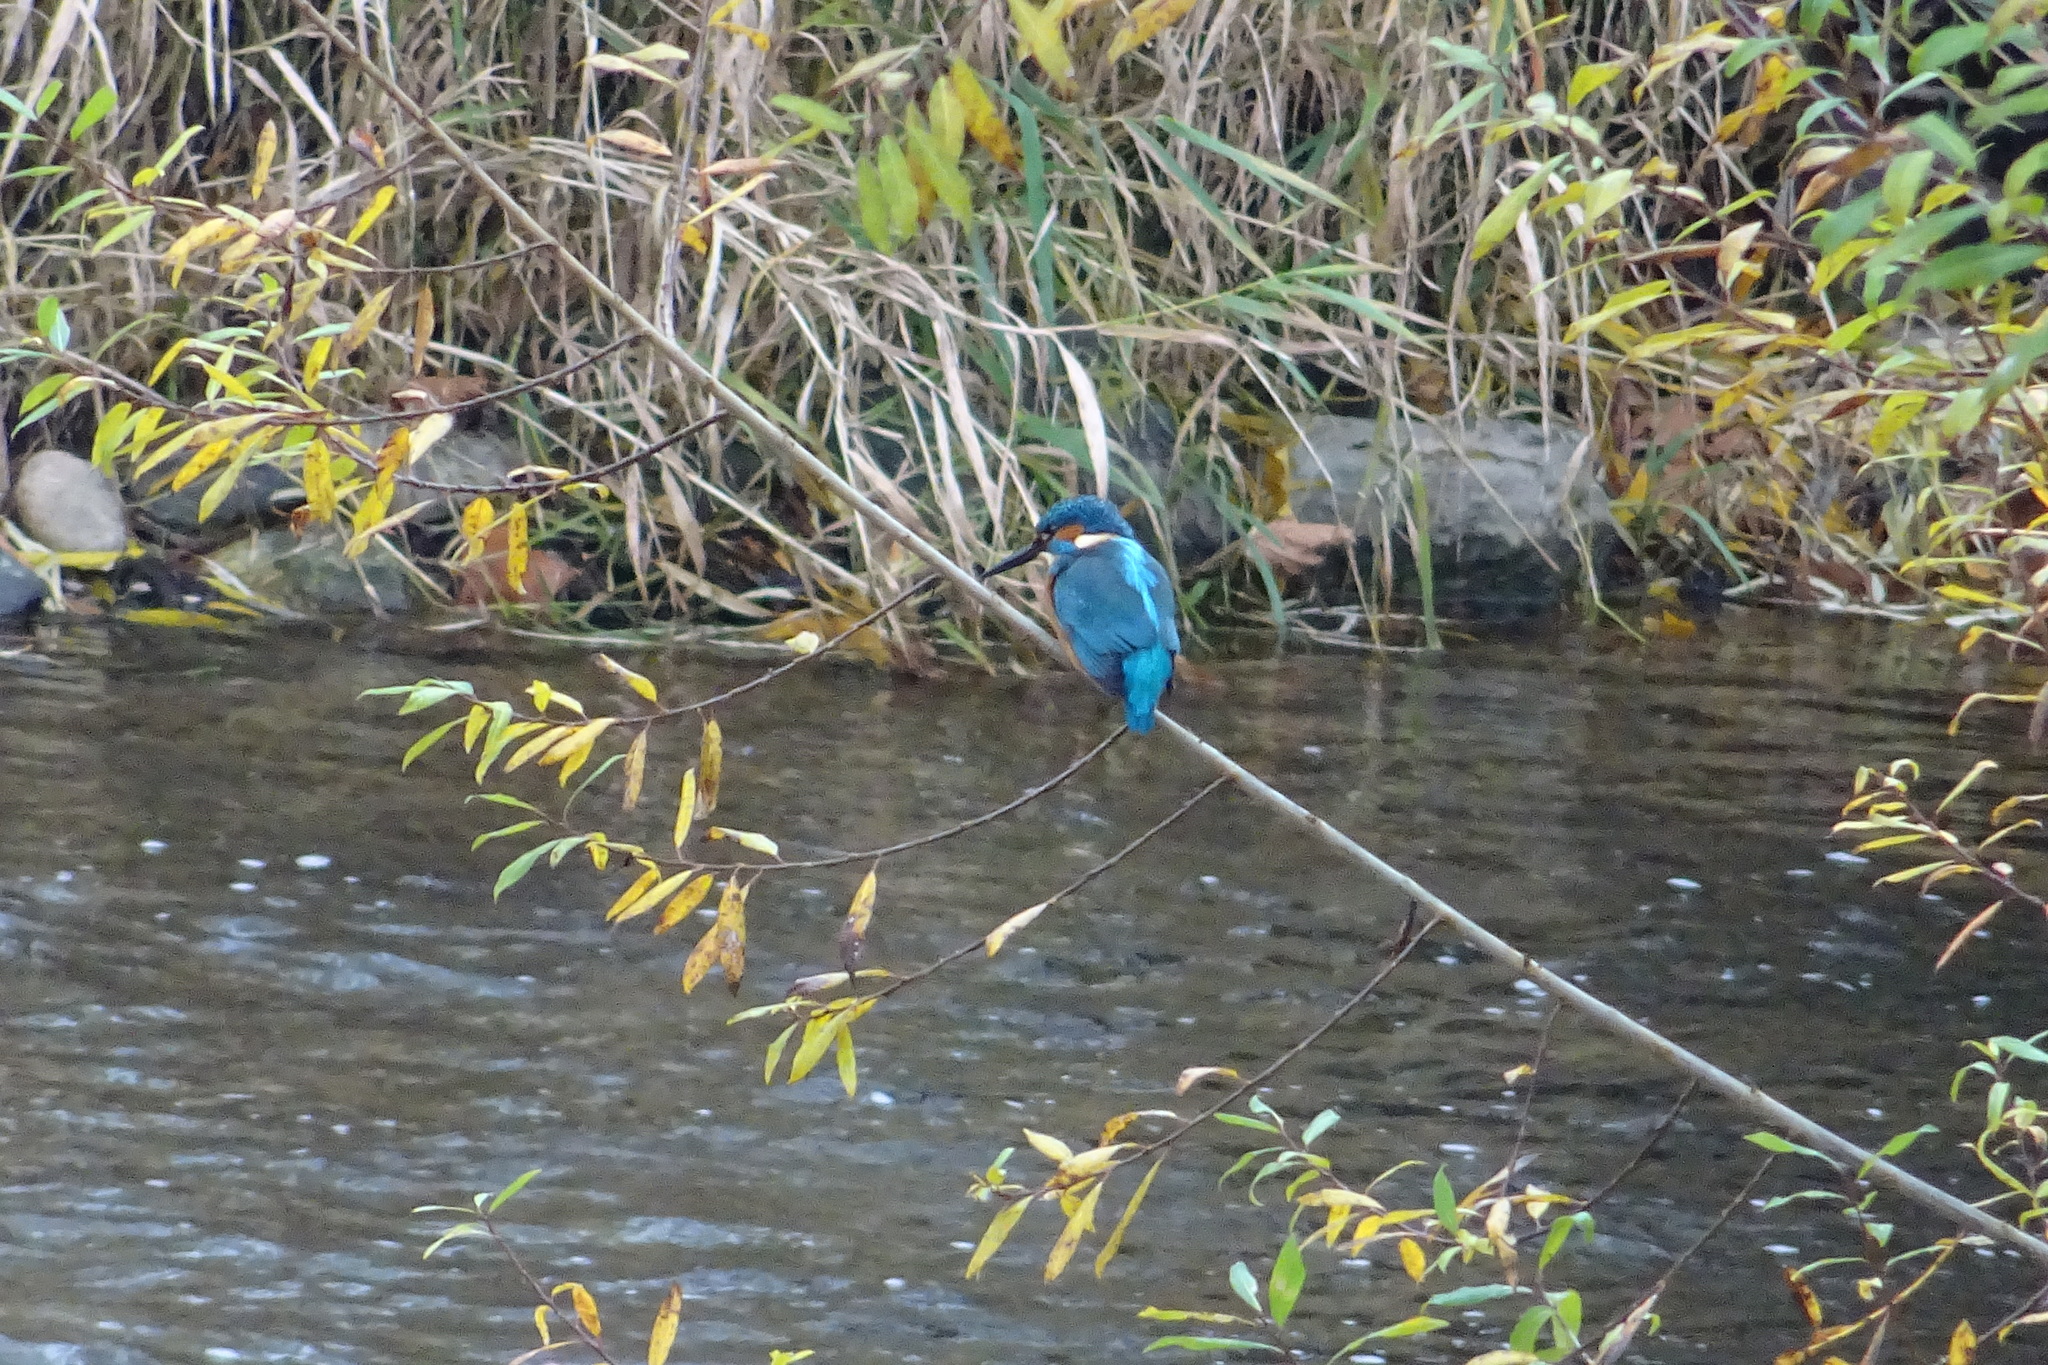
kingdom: Animalia
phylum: Chordata
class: Aves
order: Coraciiformes
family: Alcedinidae
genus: Alcedo
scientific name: Alcedo atthis
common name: Common kingfisher
